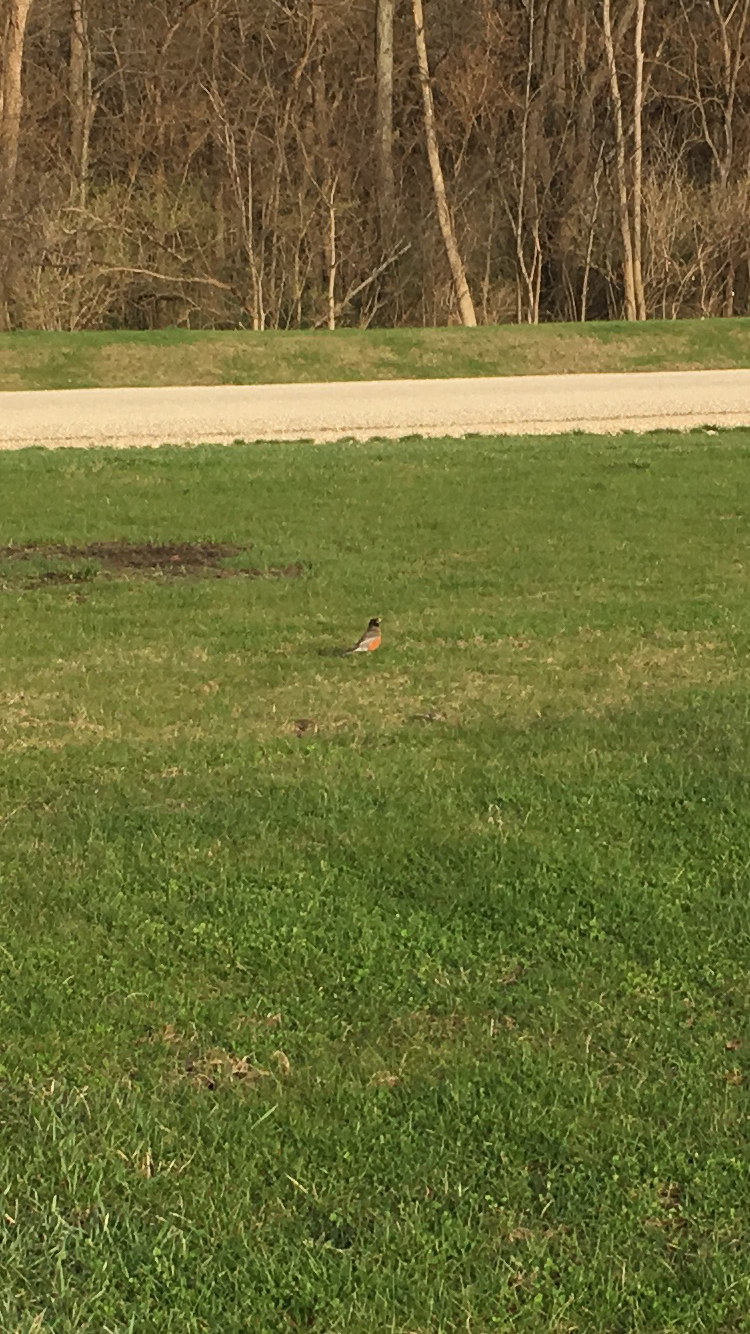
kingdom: Animalia
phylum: Chordata
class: Aves
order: Passeriformes
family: Turdidae
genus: Turdus
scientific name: Turdus migratorius
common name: American robin
